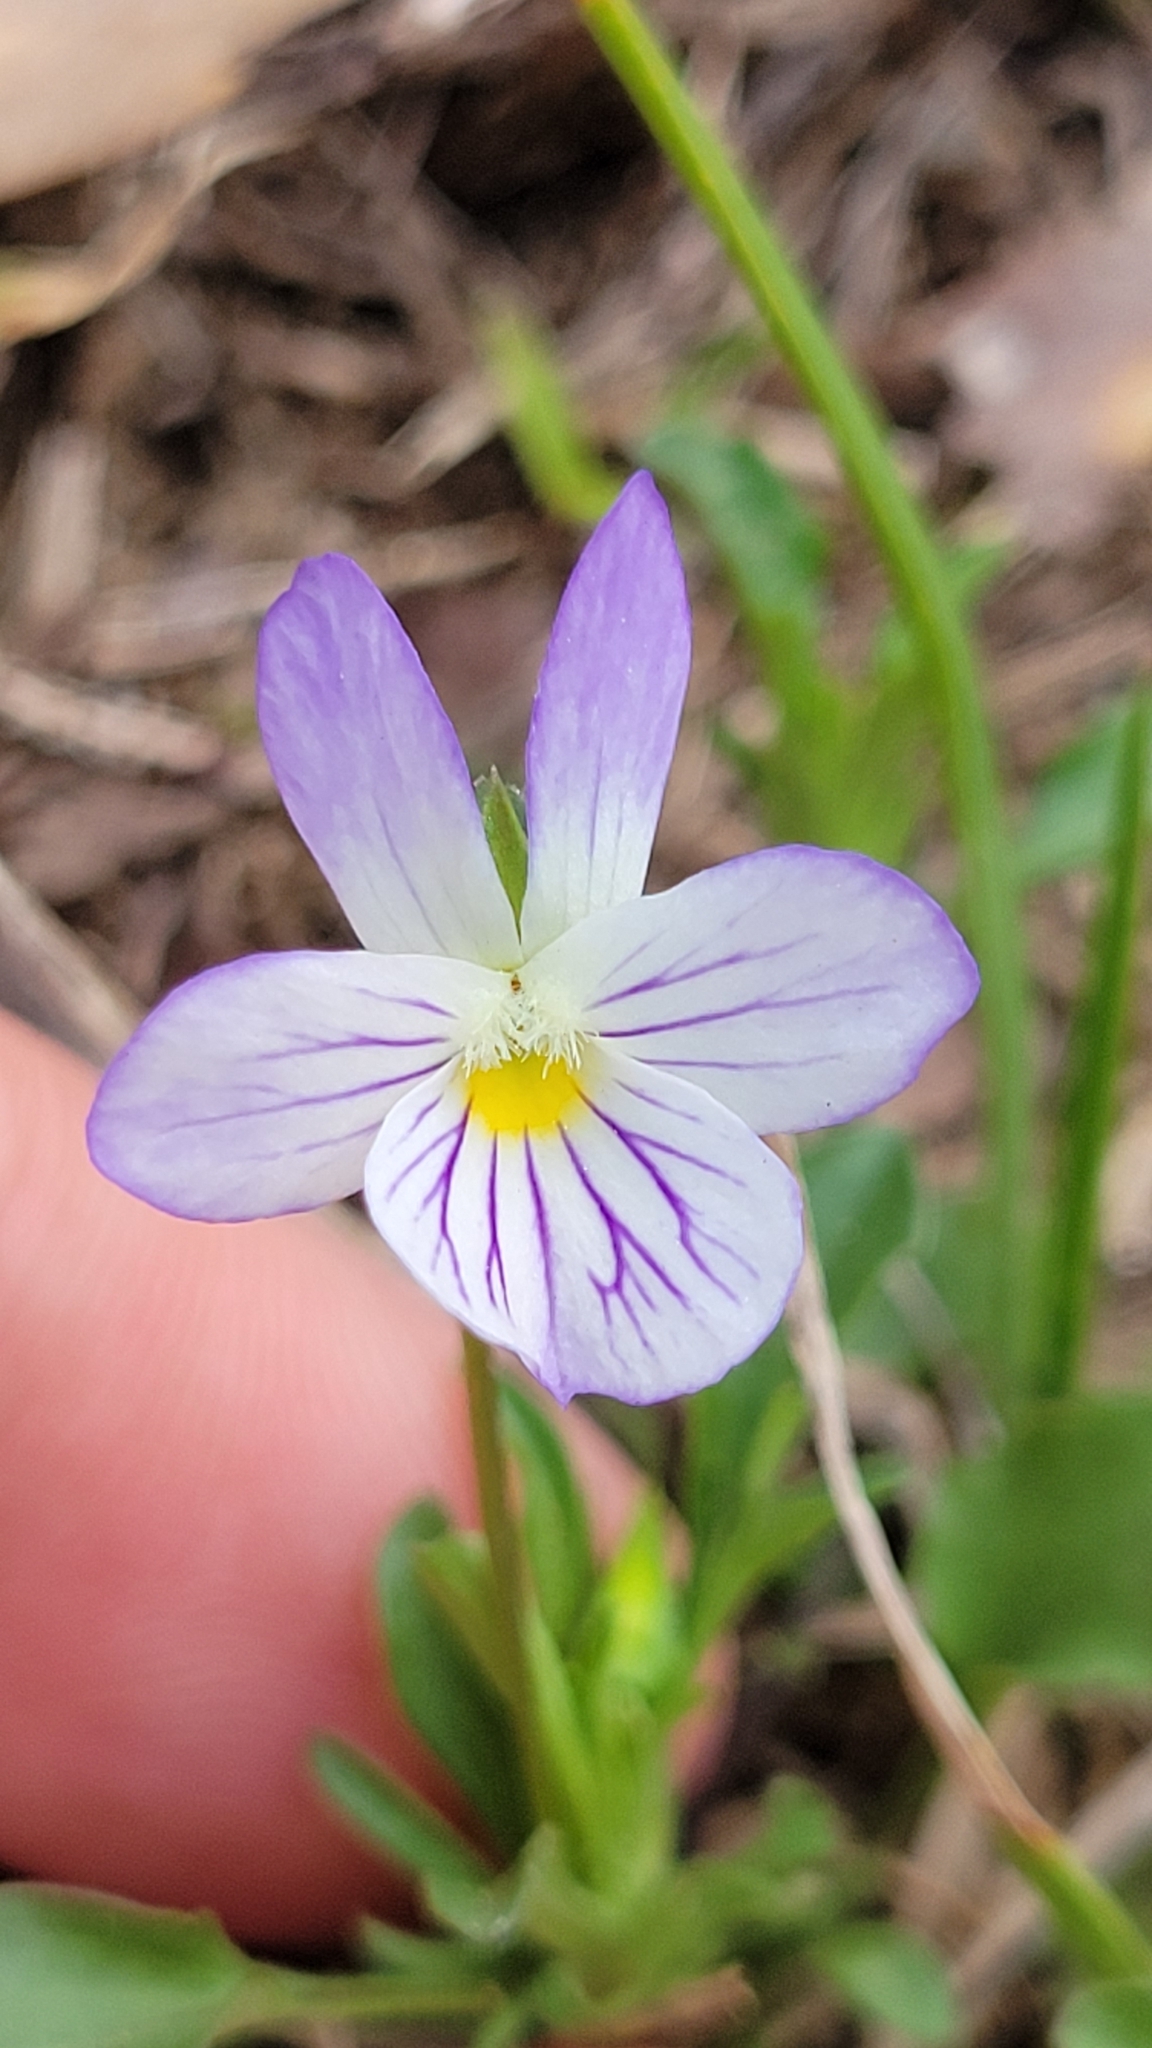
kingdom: Plantae
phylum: Tracheophyta
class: Magnoliopsida
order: Malpighiales
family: Violaceae
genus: Viola
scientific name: Viola rafinesquei
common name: American field pansy
